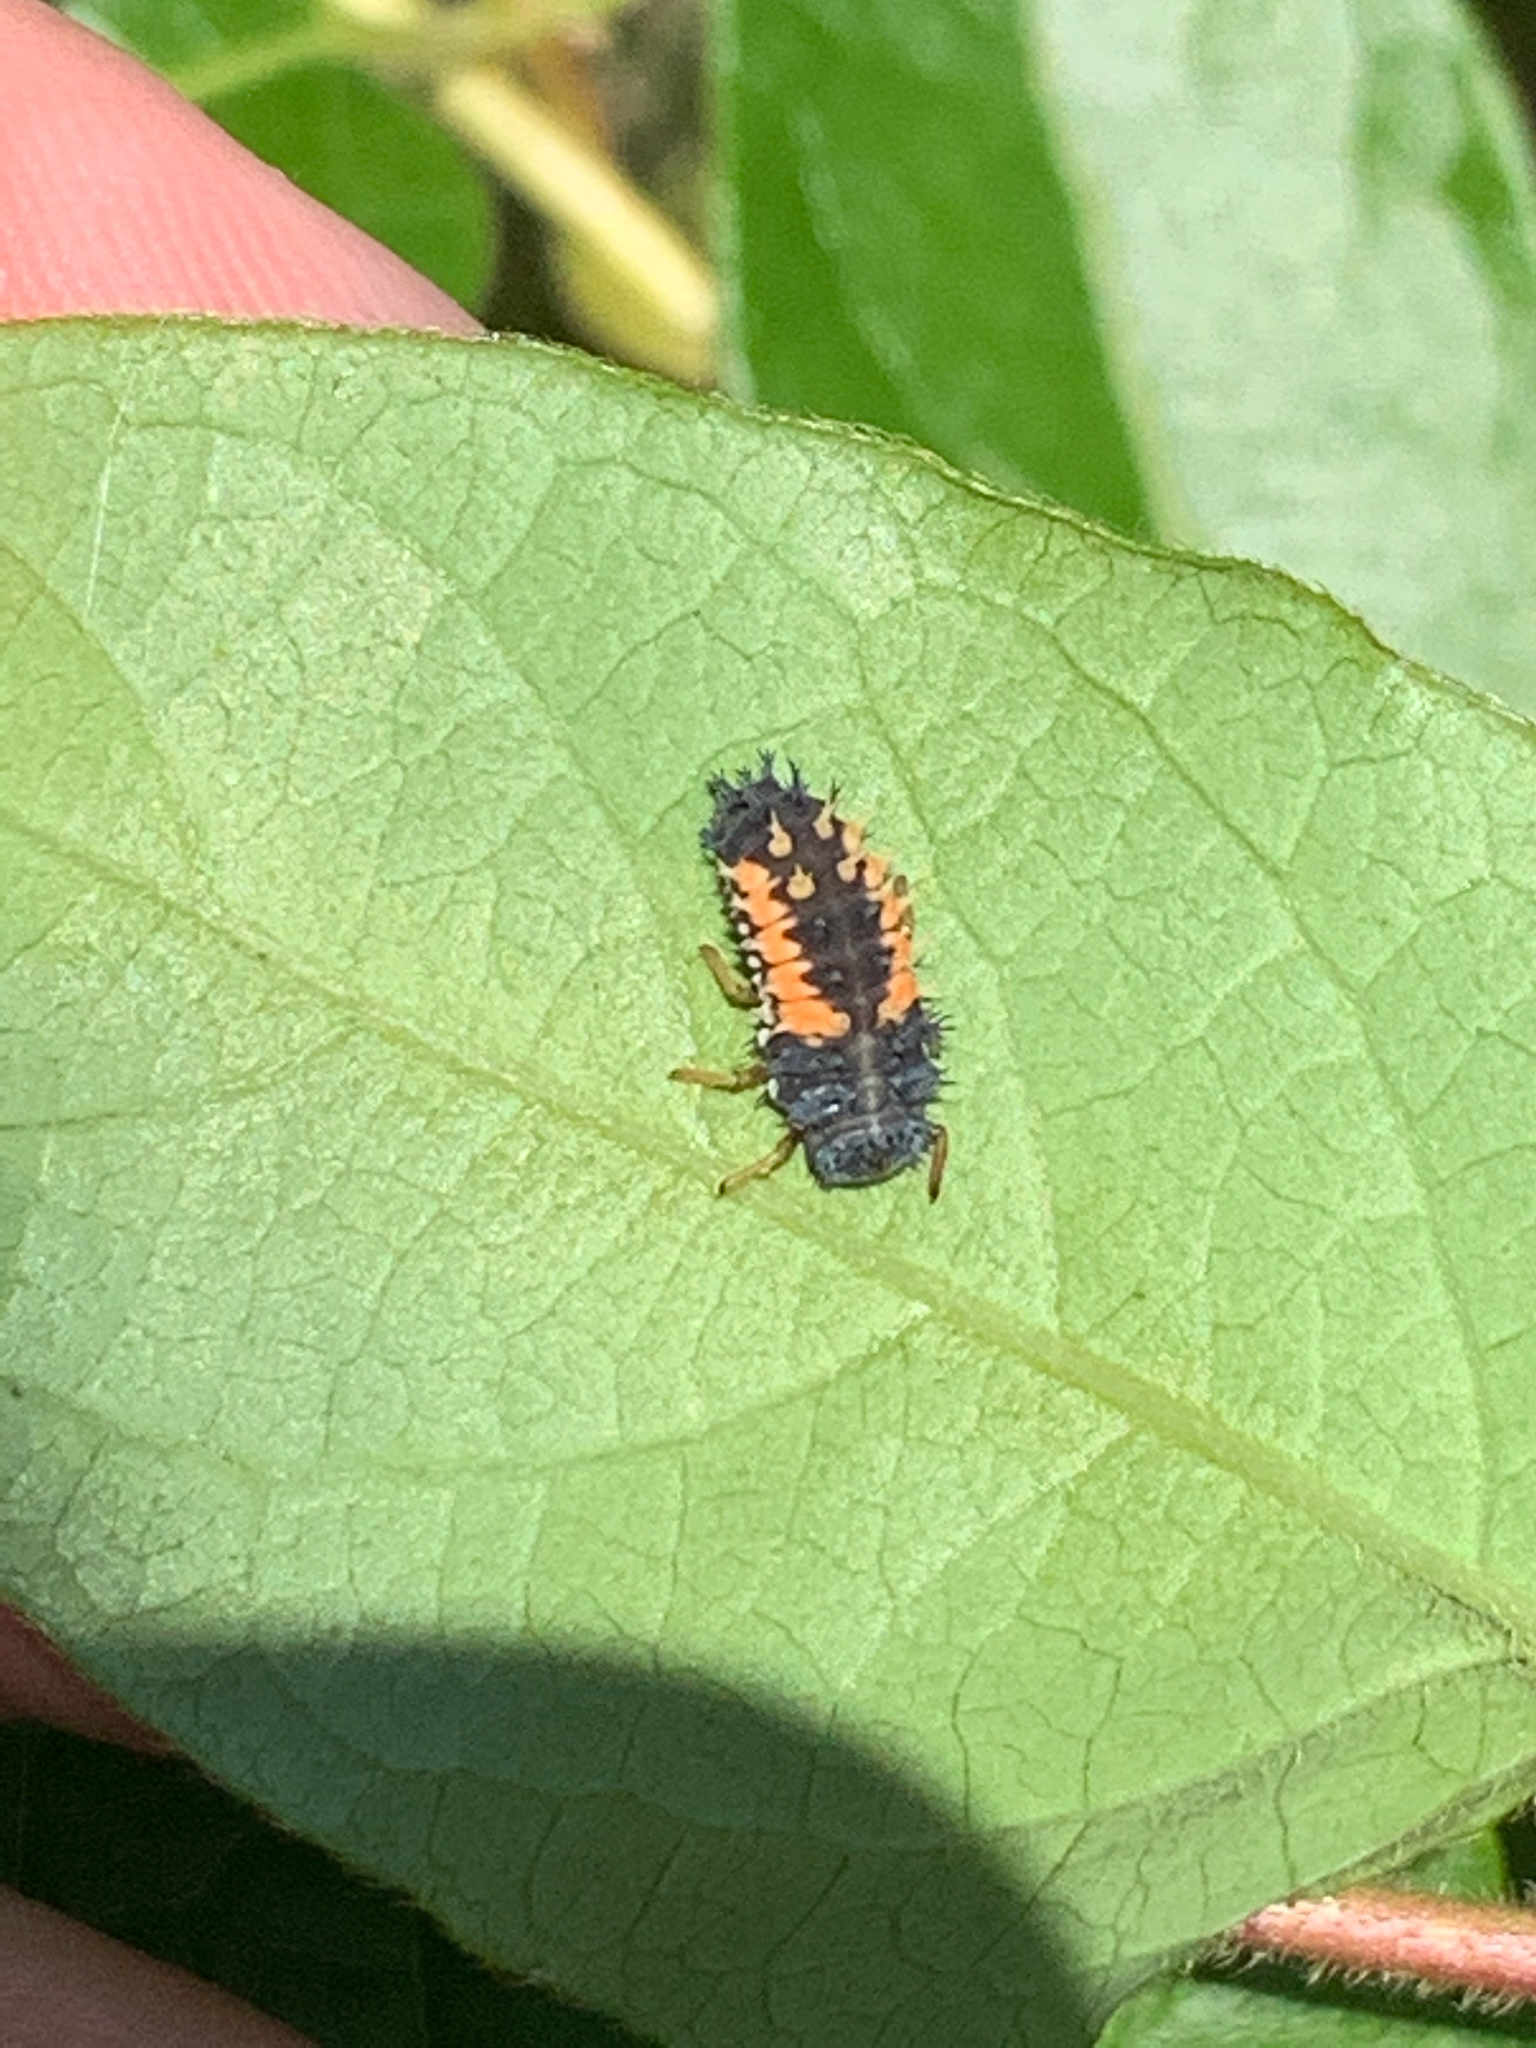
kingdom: Animalia
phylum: Arthropoda
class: Insecta
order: Coleoptera
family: Coccinellidae
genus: Harmonia
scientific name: Harmonia axyridis
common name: Harlequin ladybird
